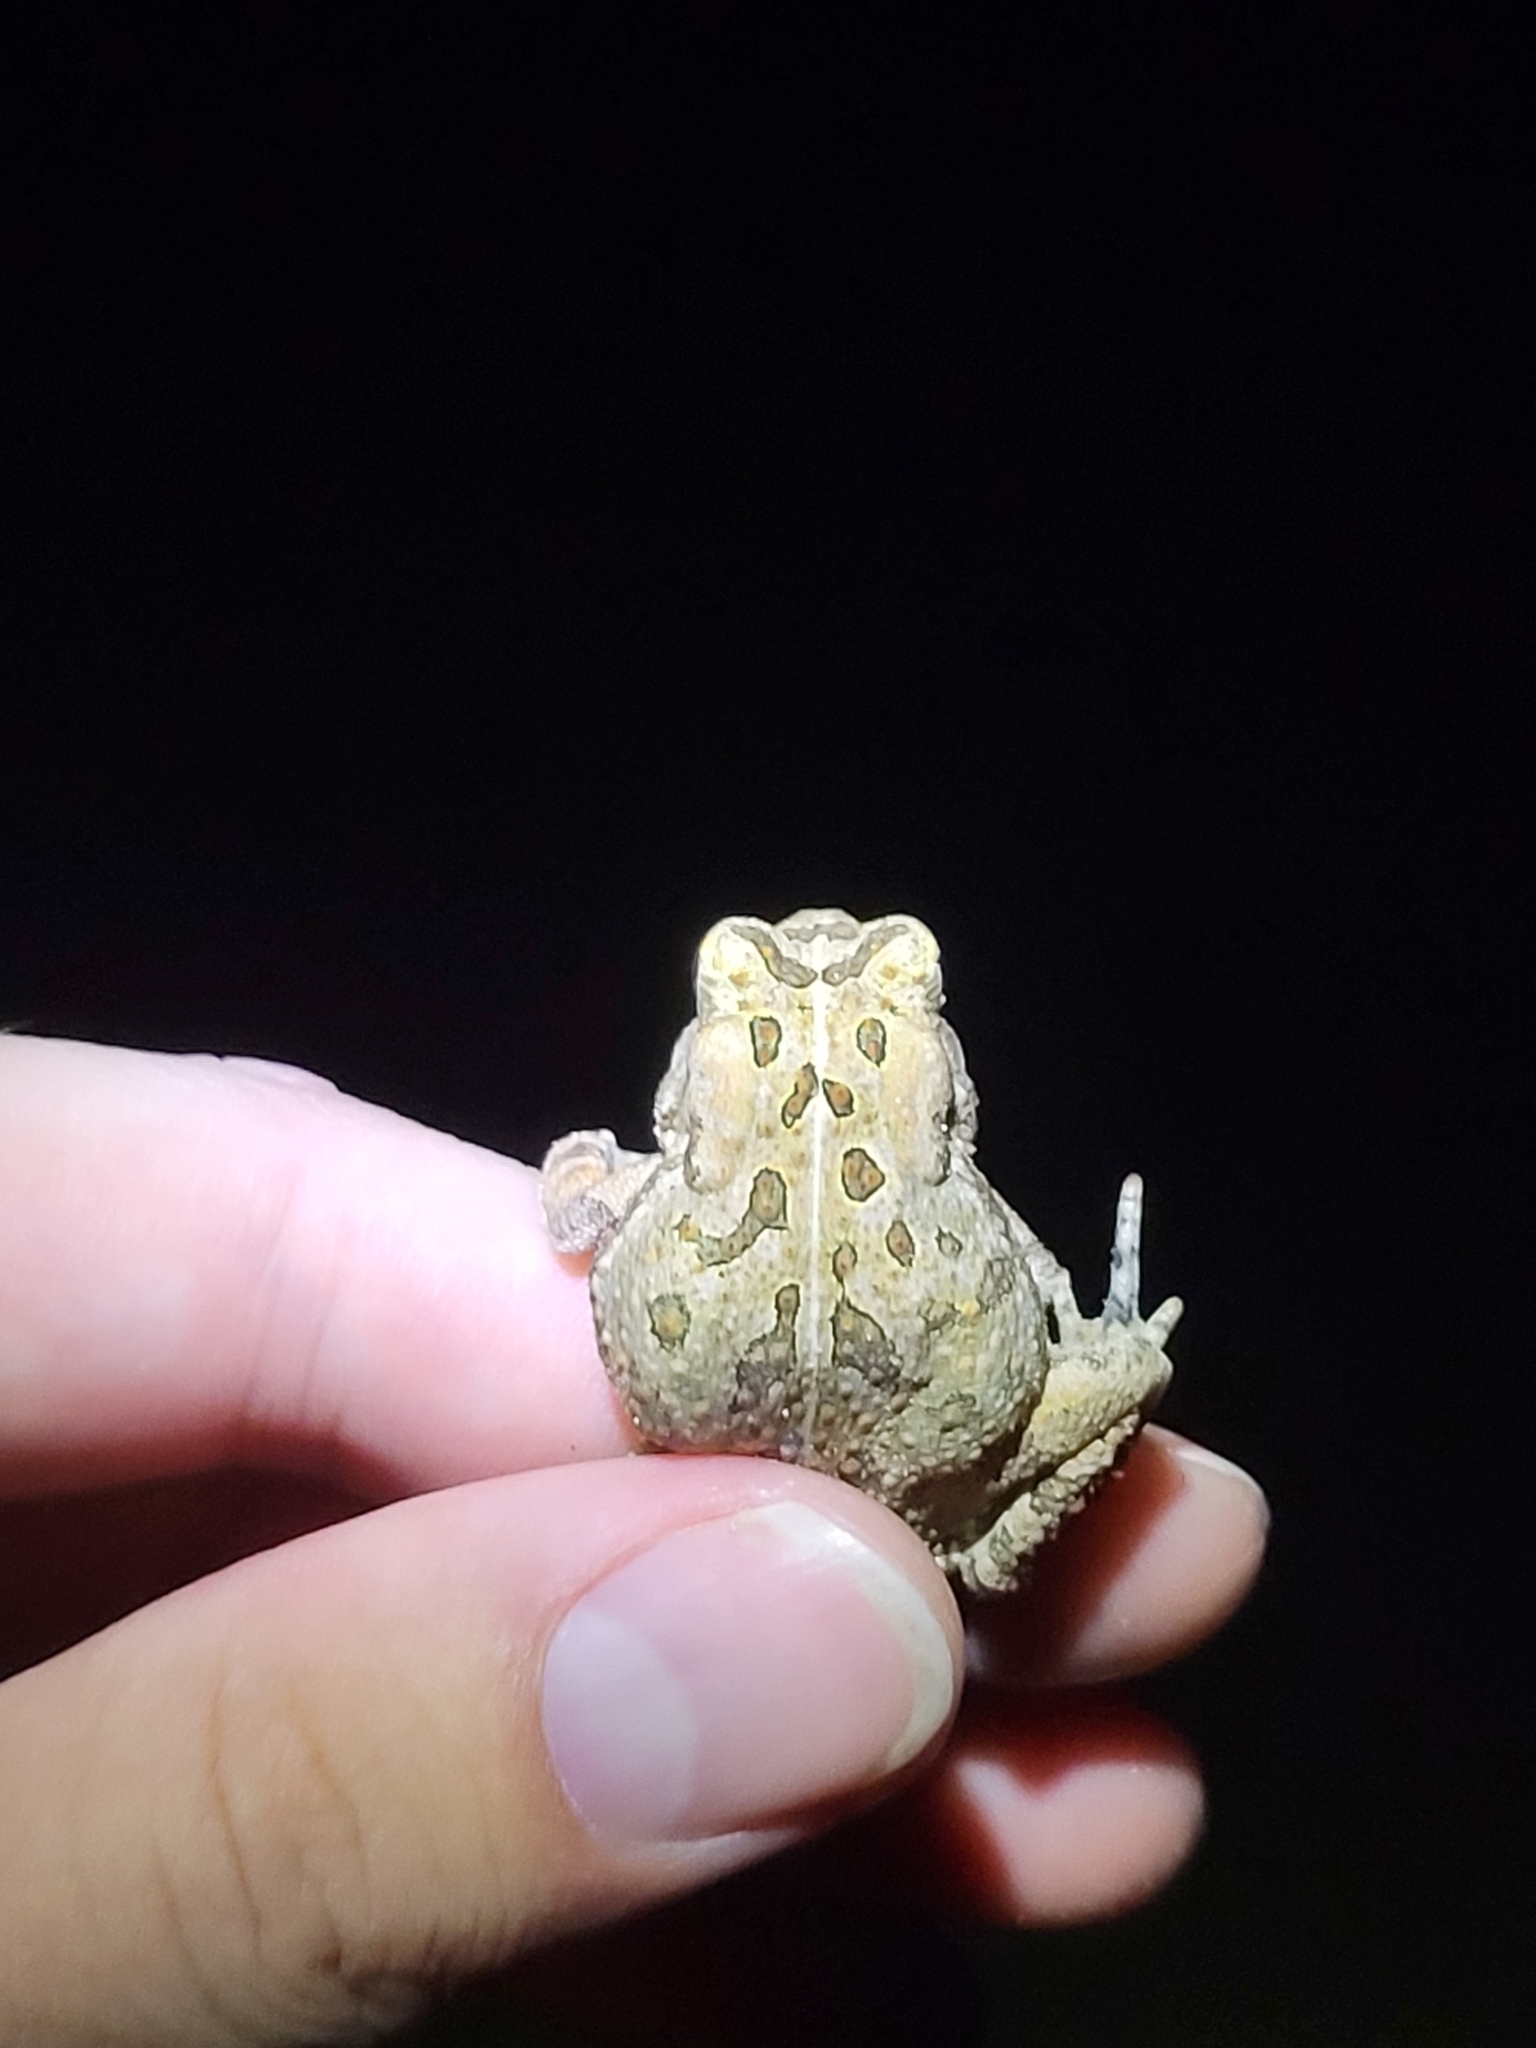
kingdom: Animalia
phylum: Chordata
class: Amphibia
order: Anura
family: Bufonidae
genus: Anaxyrus
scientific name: Anaxyrus fowleri
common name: Fowler's toad
